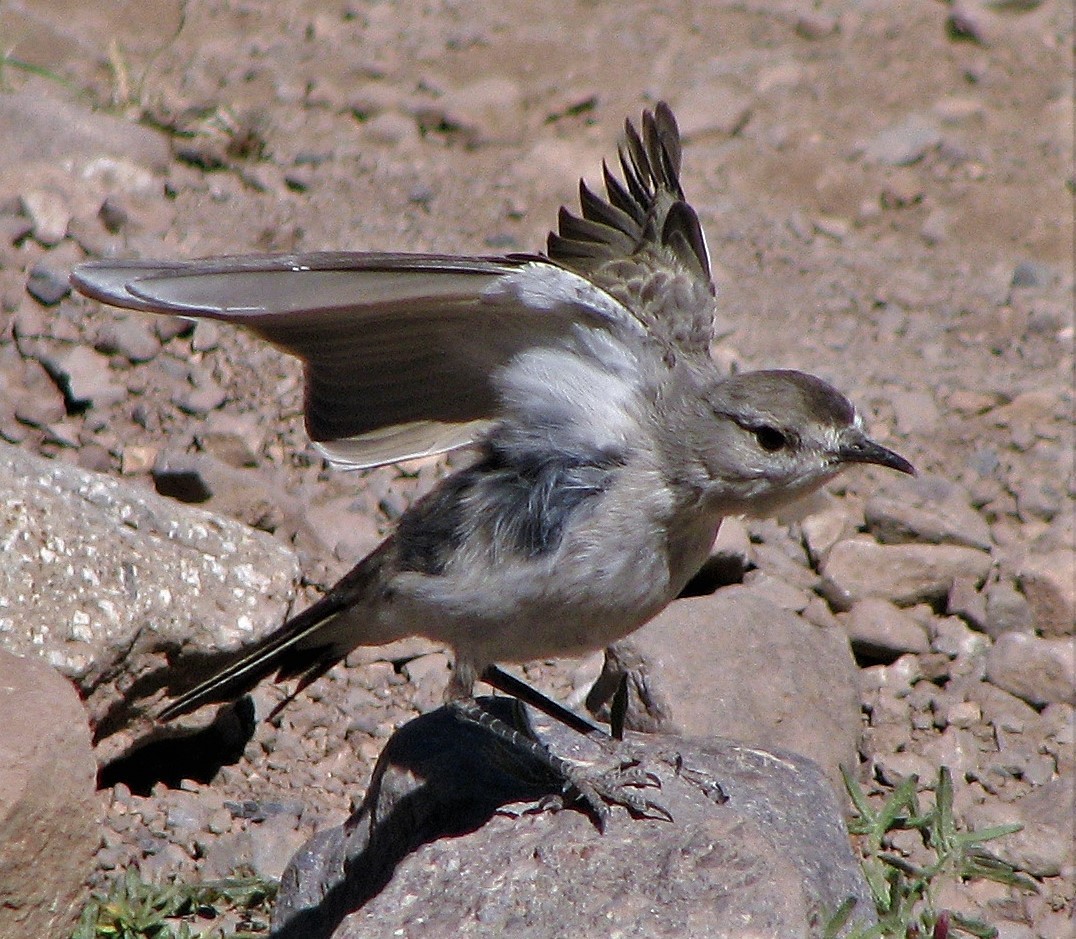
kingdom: Animalia
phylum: Chordata
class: Aves
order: Passeriformes
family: Tyrannidae
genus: Muscisaxicola
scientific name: Muscisaxicola frontalis
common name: Black-fronted ground tyrant
